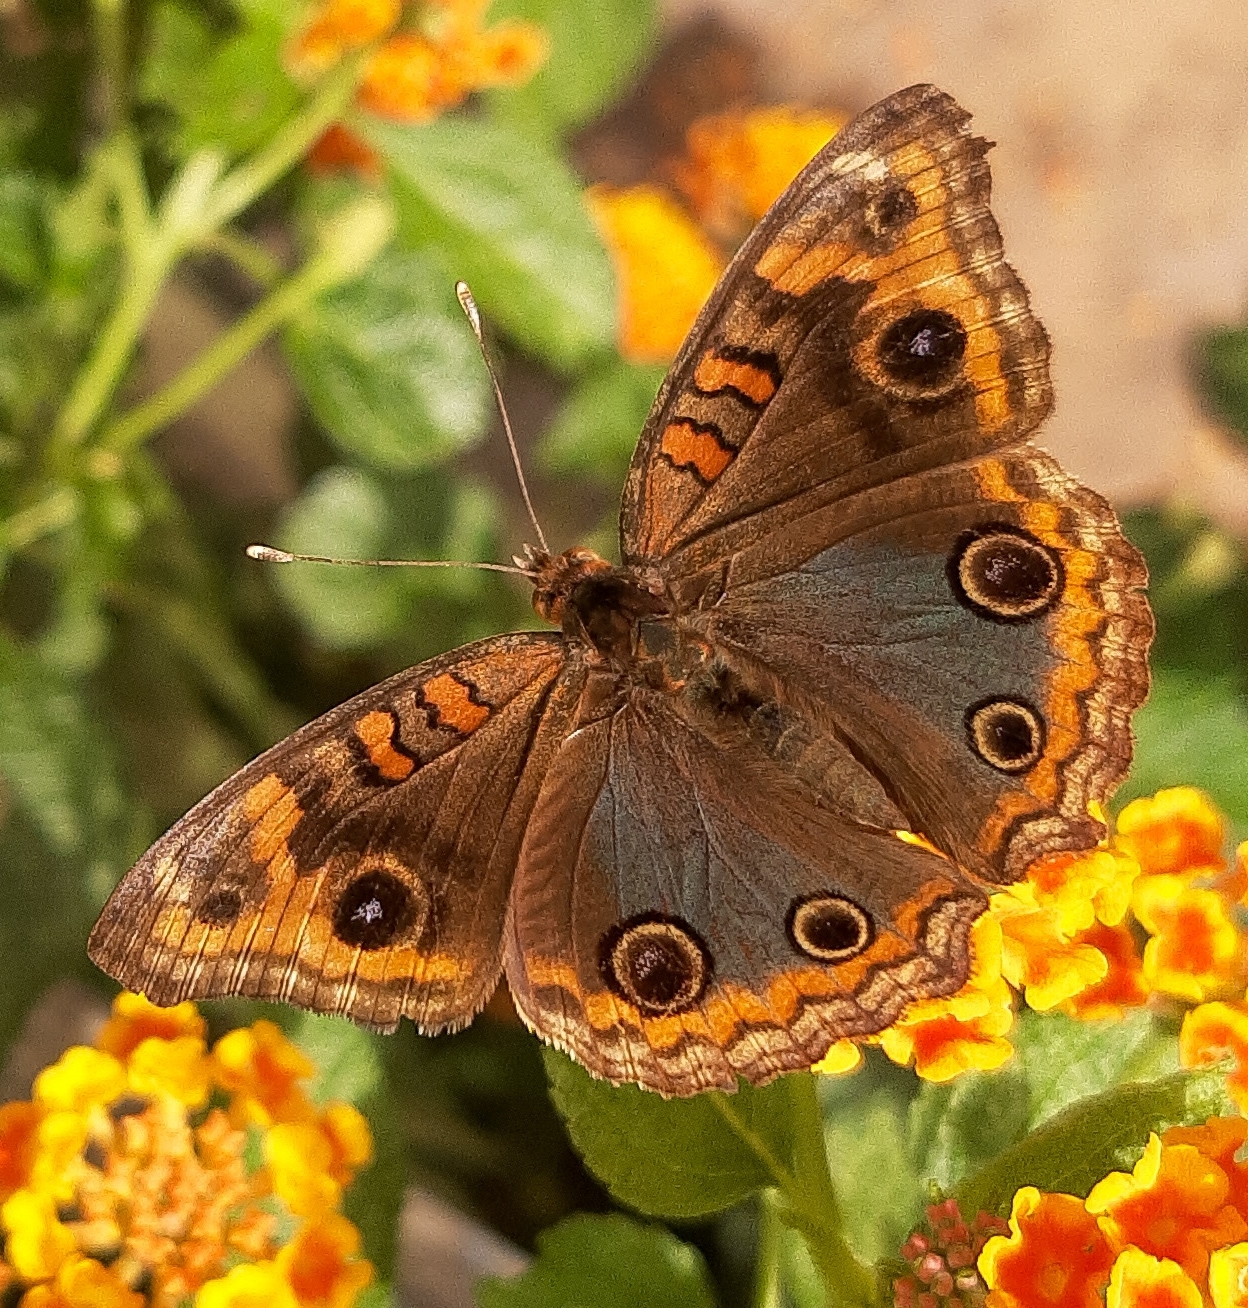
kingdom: Animalia
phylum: Arthropoda
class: Insecta
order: Lepidoptera
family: Nymphalidae
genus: Junonia
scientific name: Junonia evarete
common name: Black mangrove buckeye
